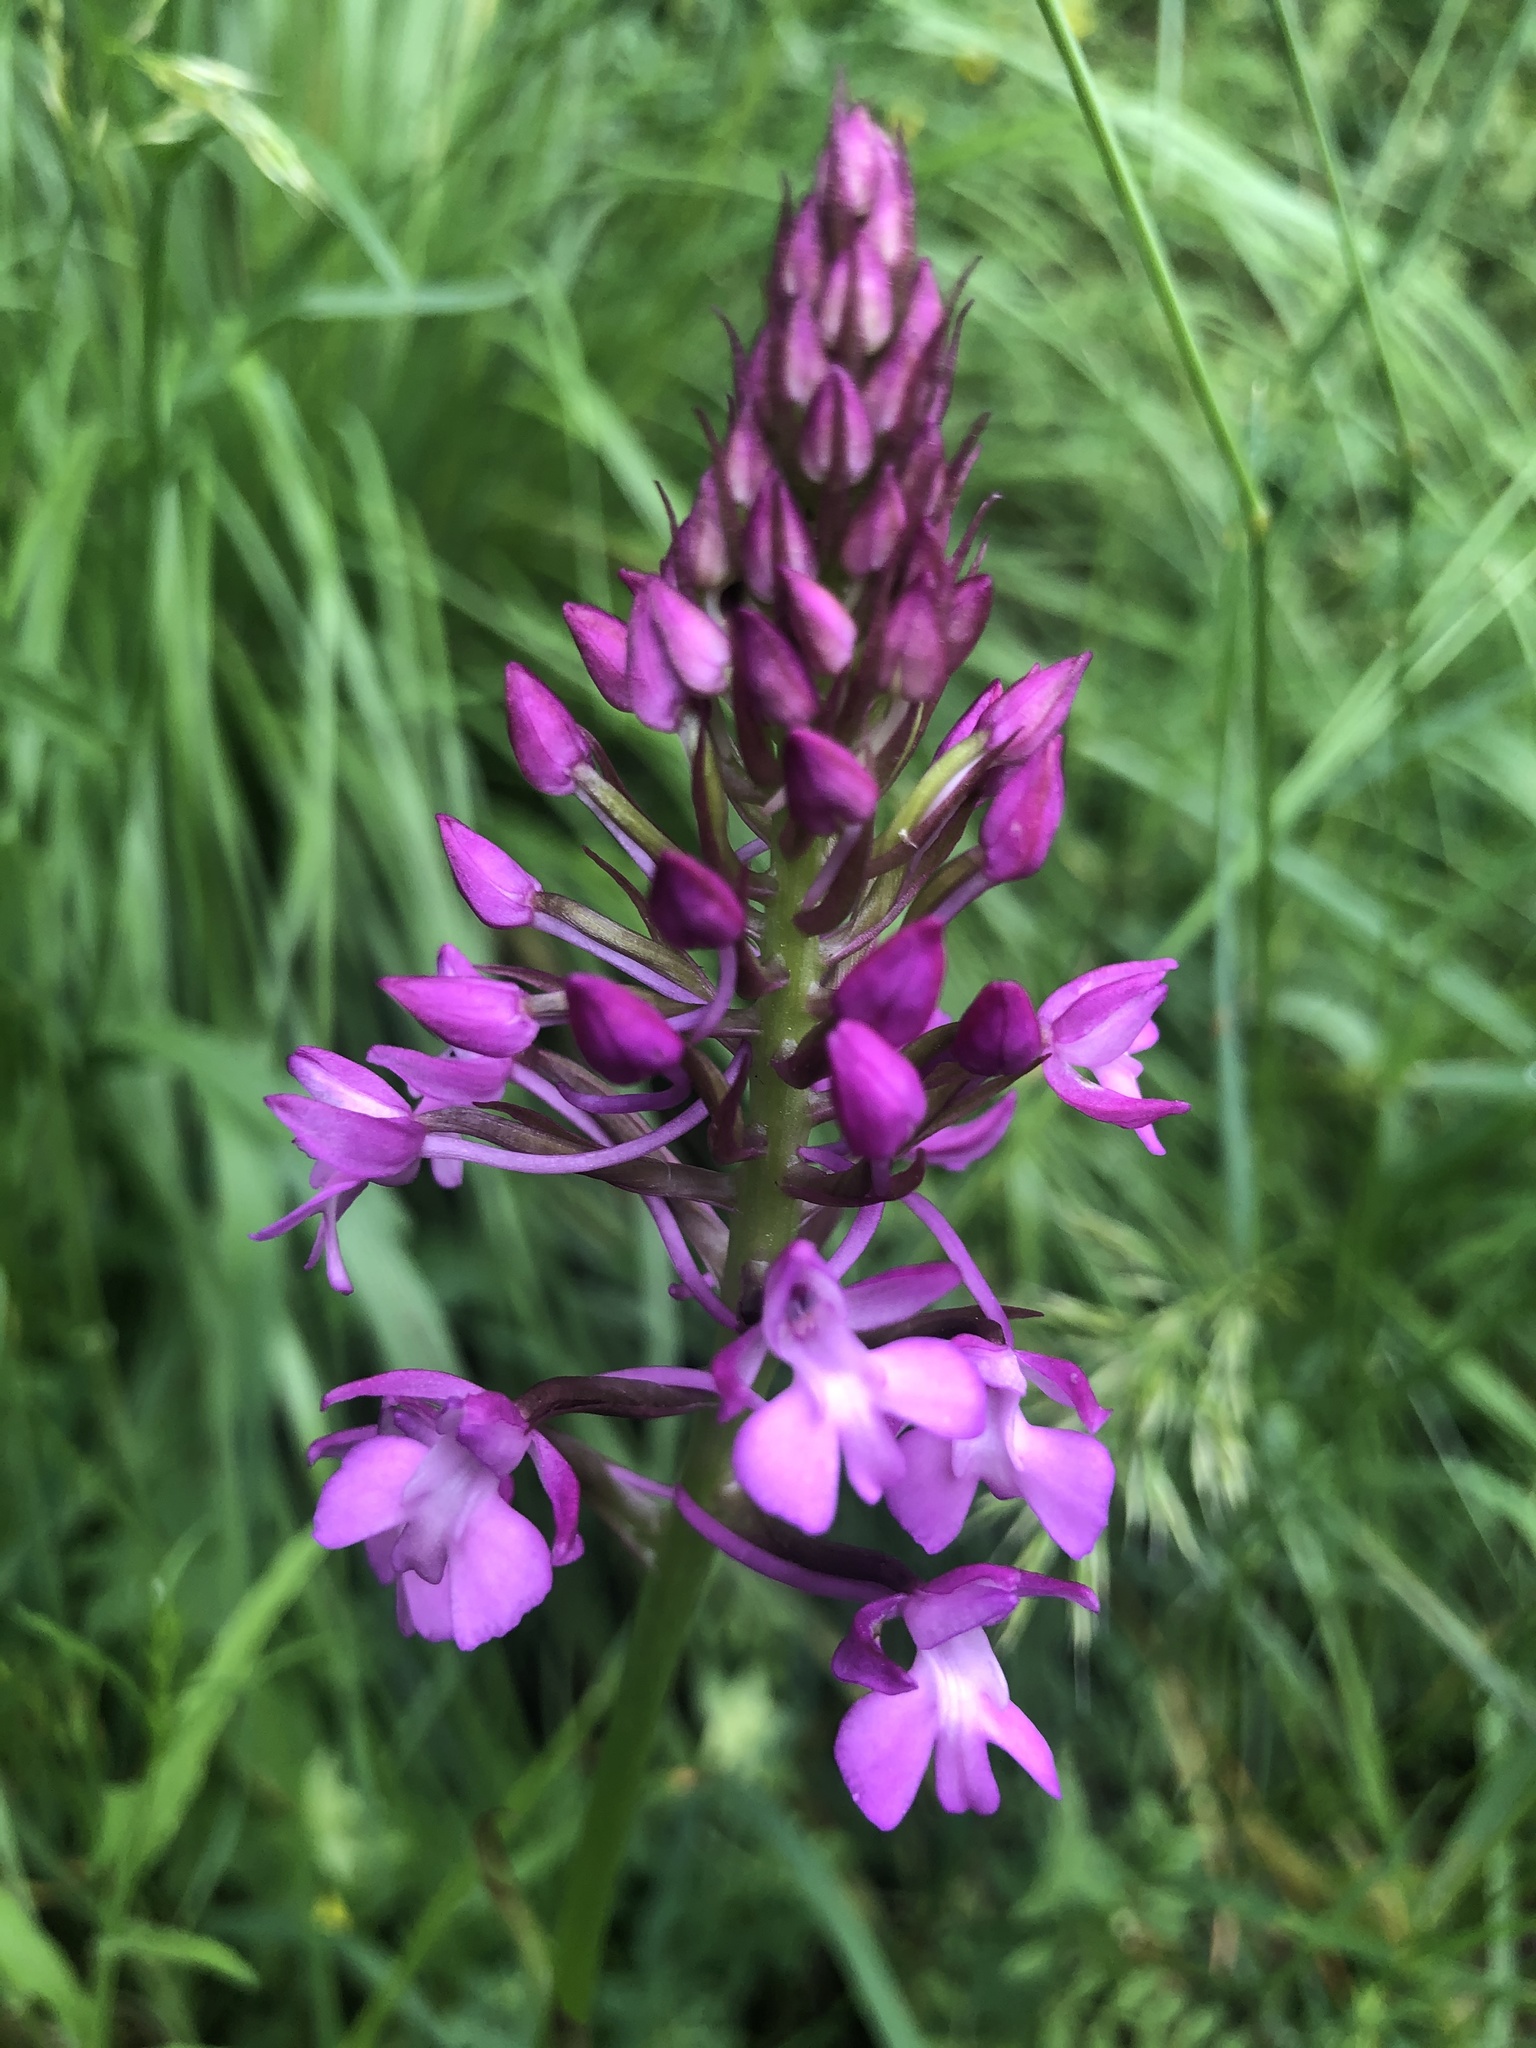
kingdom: Plantae
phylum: Tracheophyta
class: Liliopsida
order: Asparagales
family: Orchidaceae
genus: Anacamptis
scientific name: Anacamptis pyramidalis
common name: Pyramidal orchid
